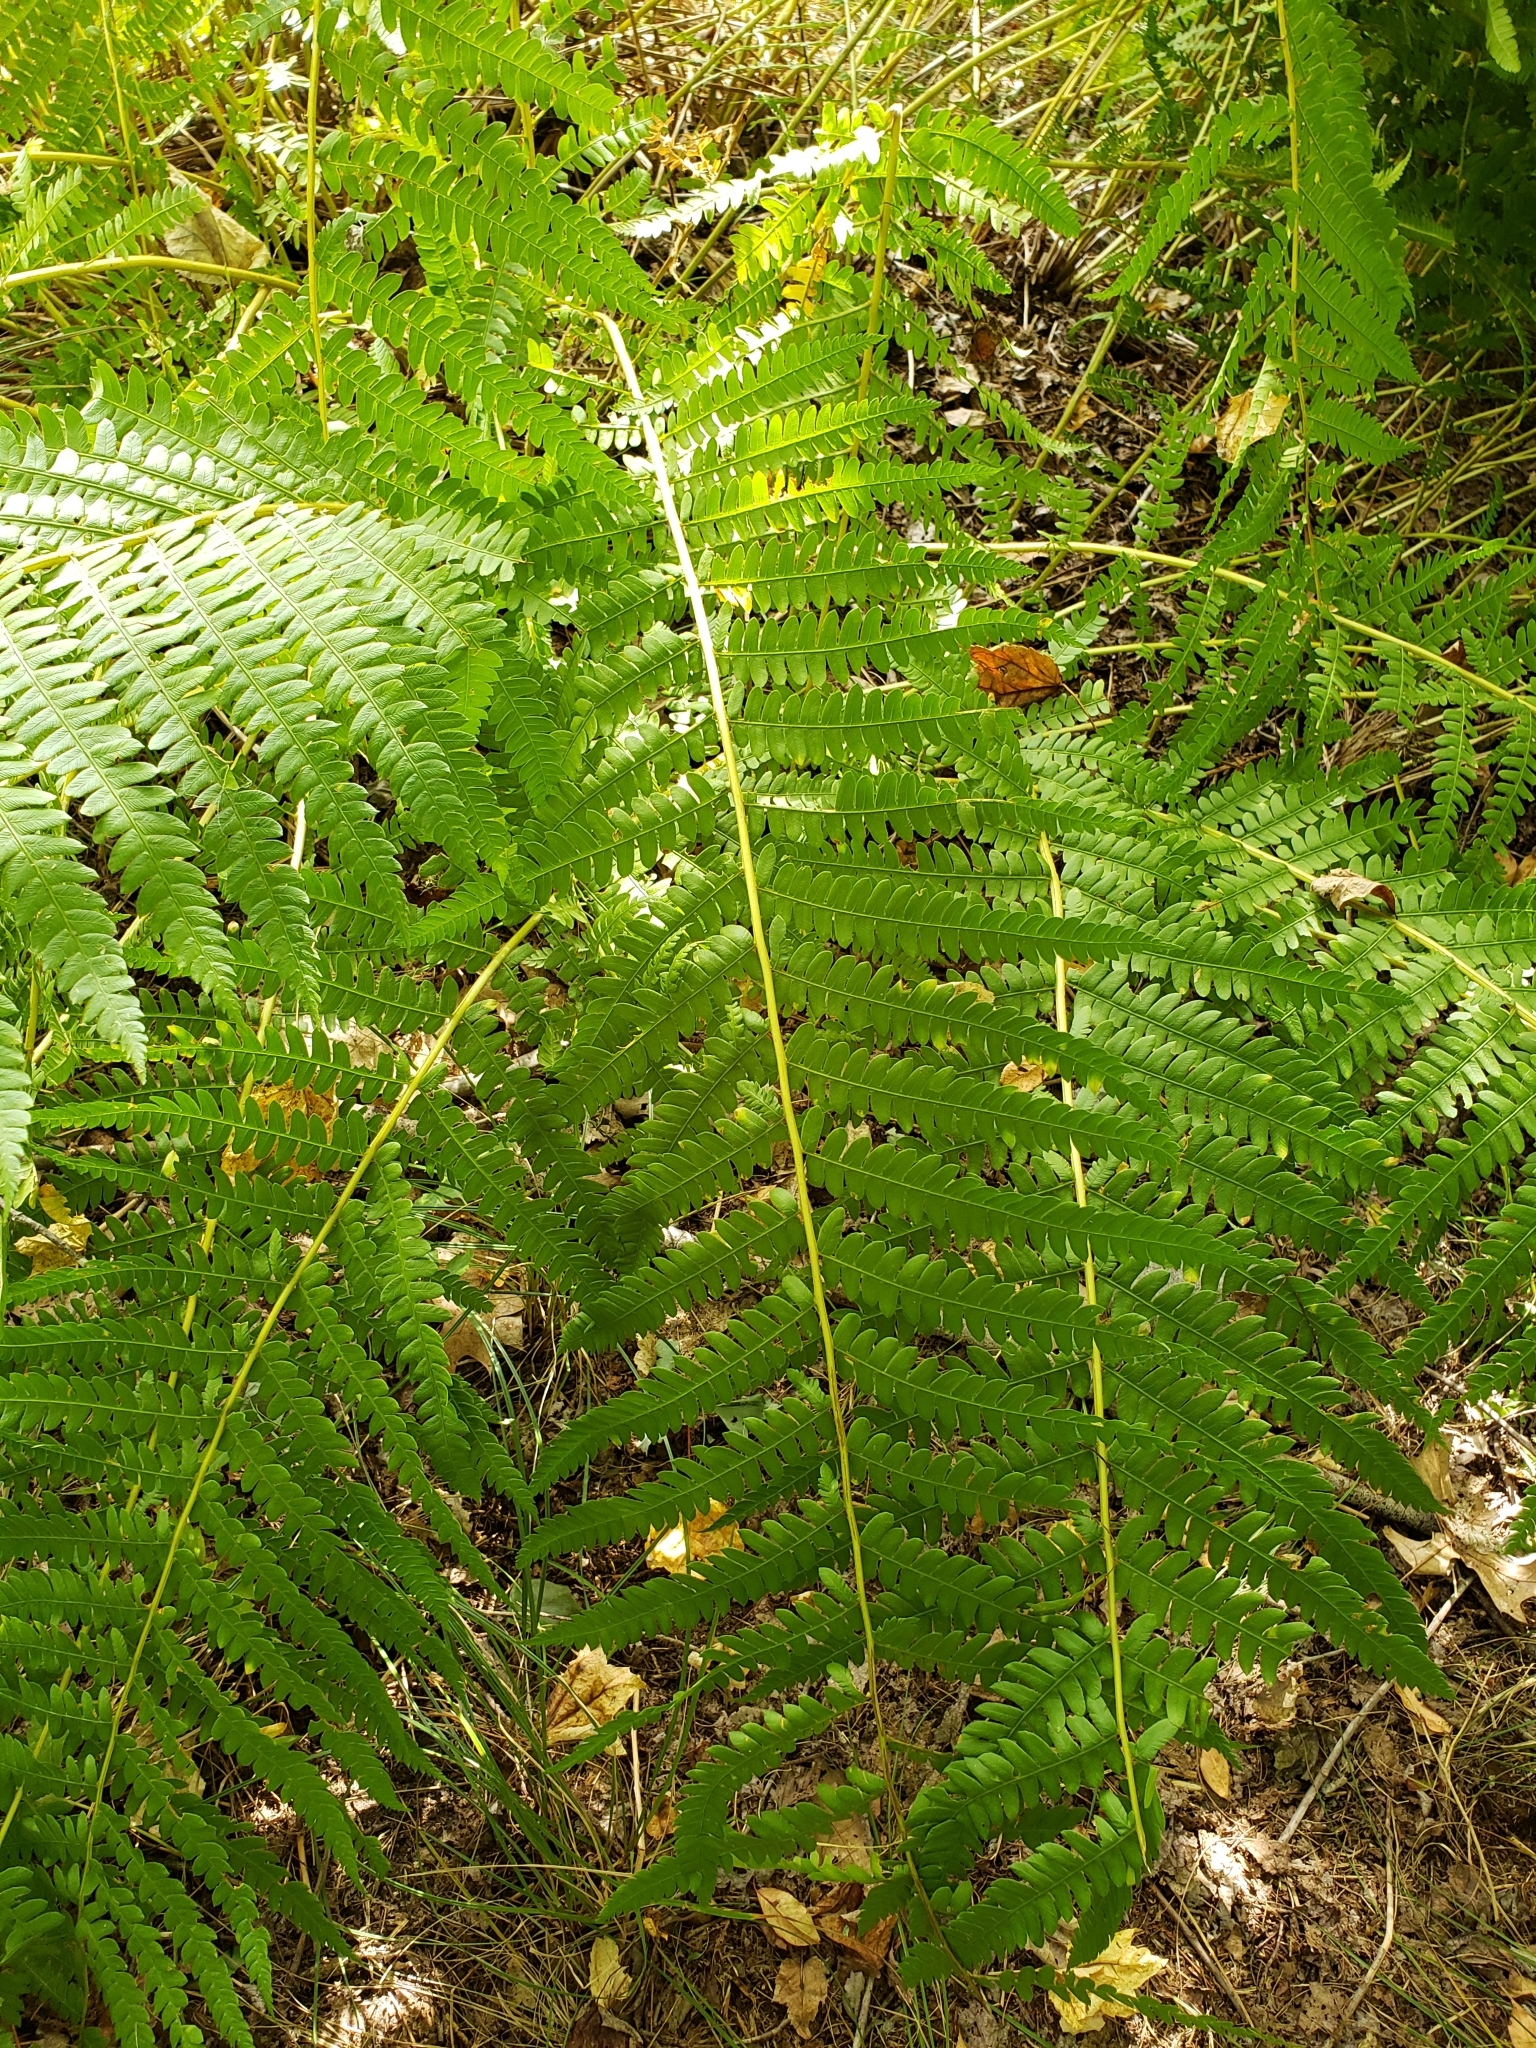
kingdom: Plantae
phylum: Tracheophyta
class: Polypodiopsida
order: Osmundales
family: Osmundaceae
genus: Osmundastrum
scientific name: Osmundastrum cinnamomeum
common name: Cinnamon fern
